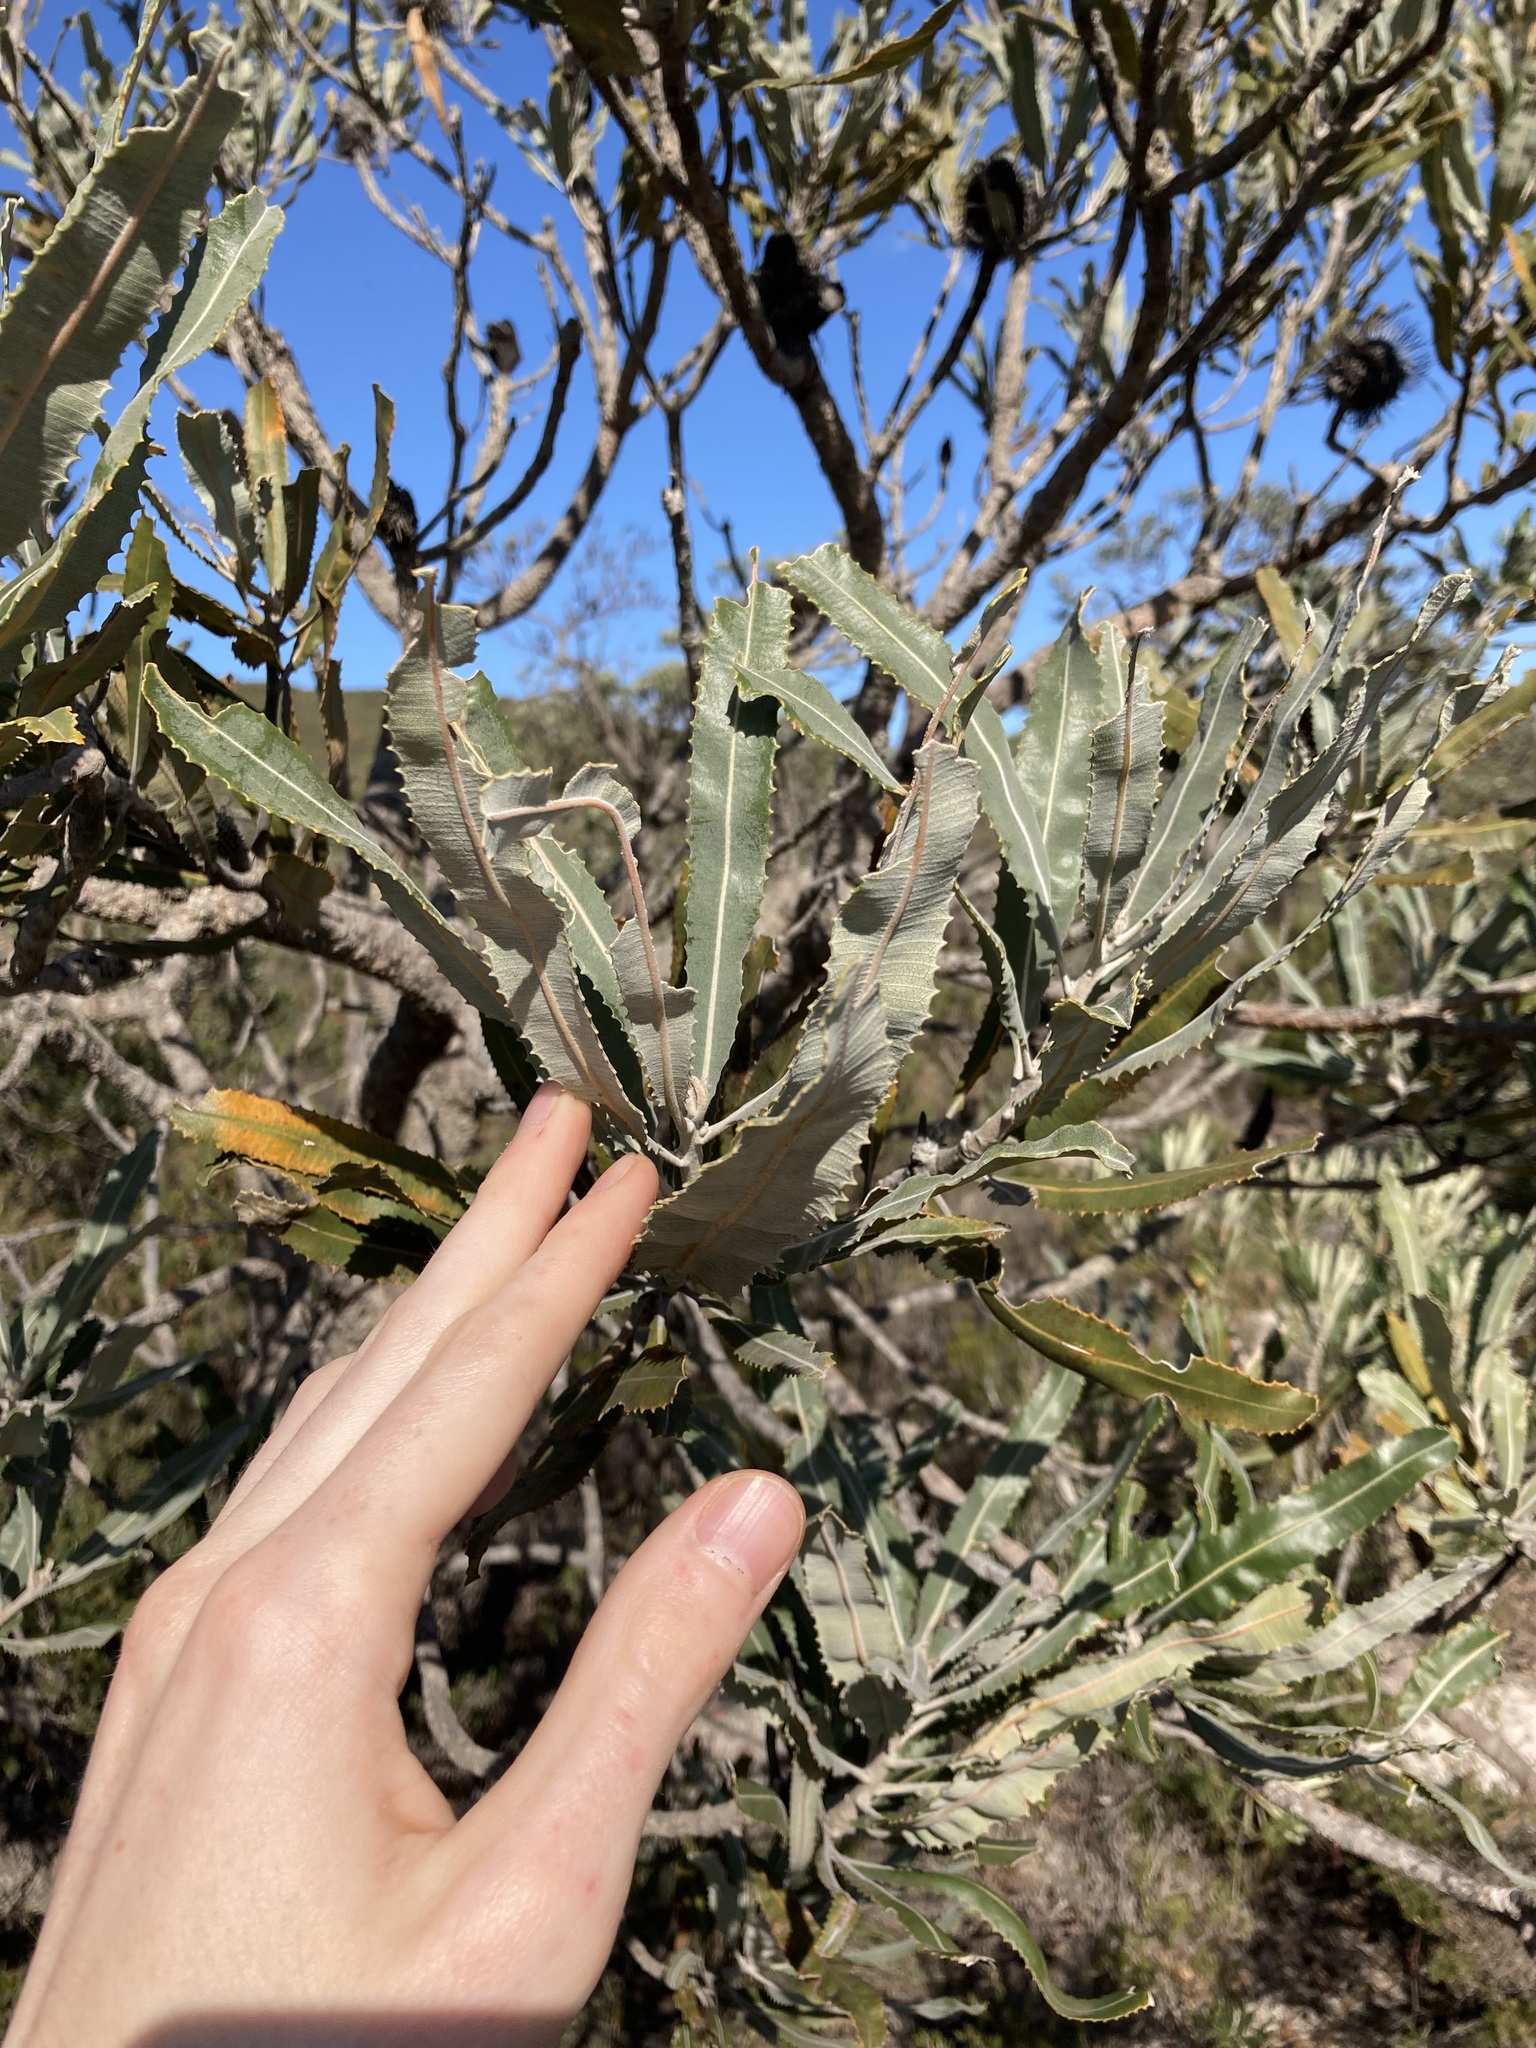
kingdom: Plantae
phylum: Tracheophyta
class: Magnoliopsida
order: Proteales
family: Proteaceae
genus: Banksia
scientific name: Banksia menziesii
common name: Menzie's banksia
